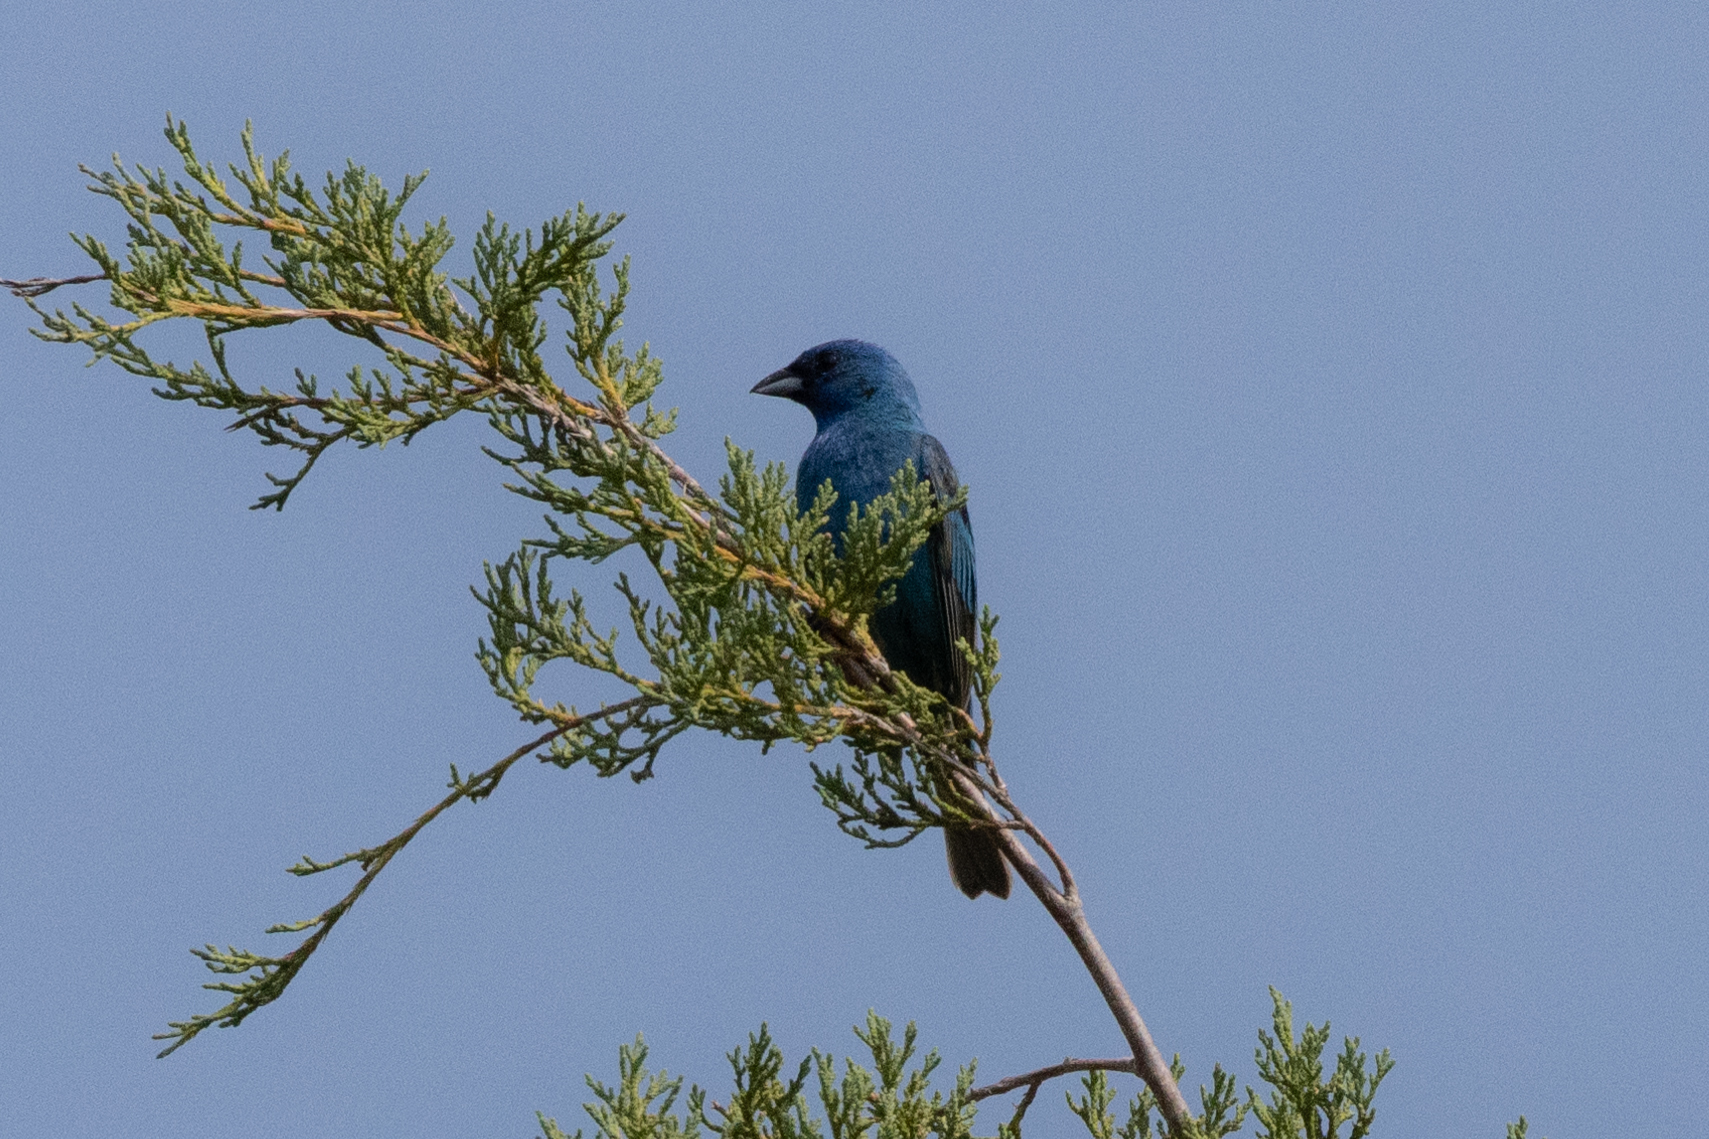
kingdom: Animalia
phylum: Chordata
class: Aves
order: Passeriformes
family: Cardinalidae
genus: Passerina
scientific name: Passerina cyanea
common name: Indigo bunting
